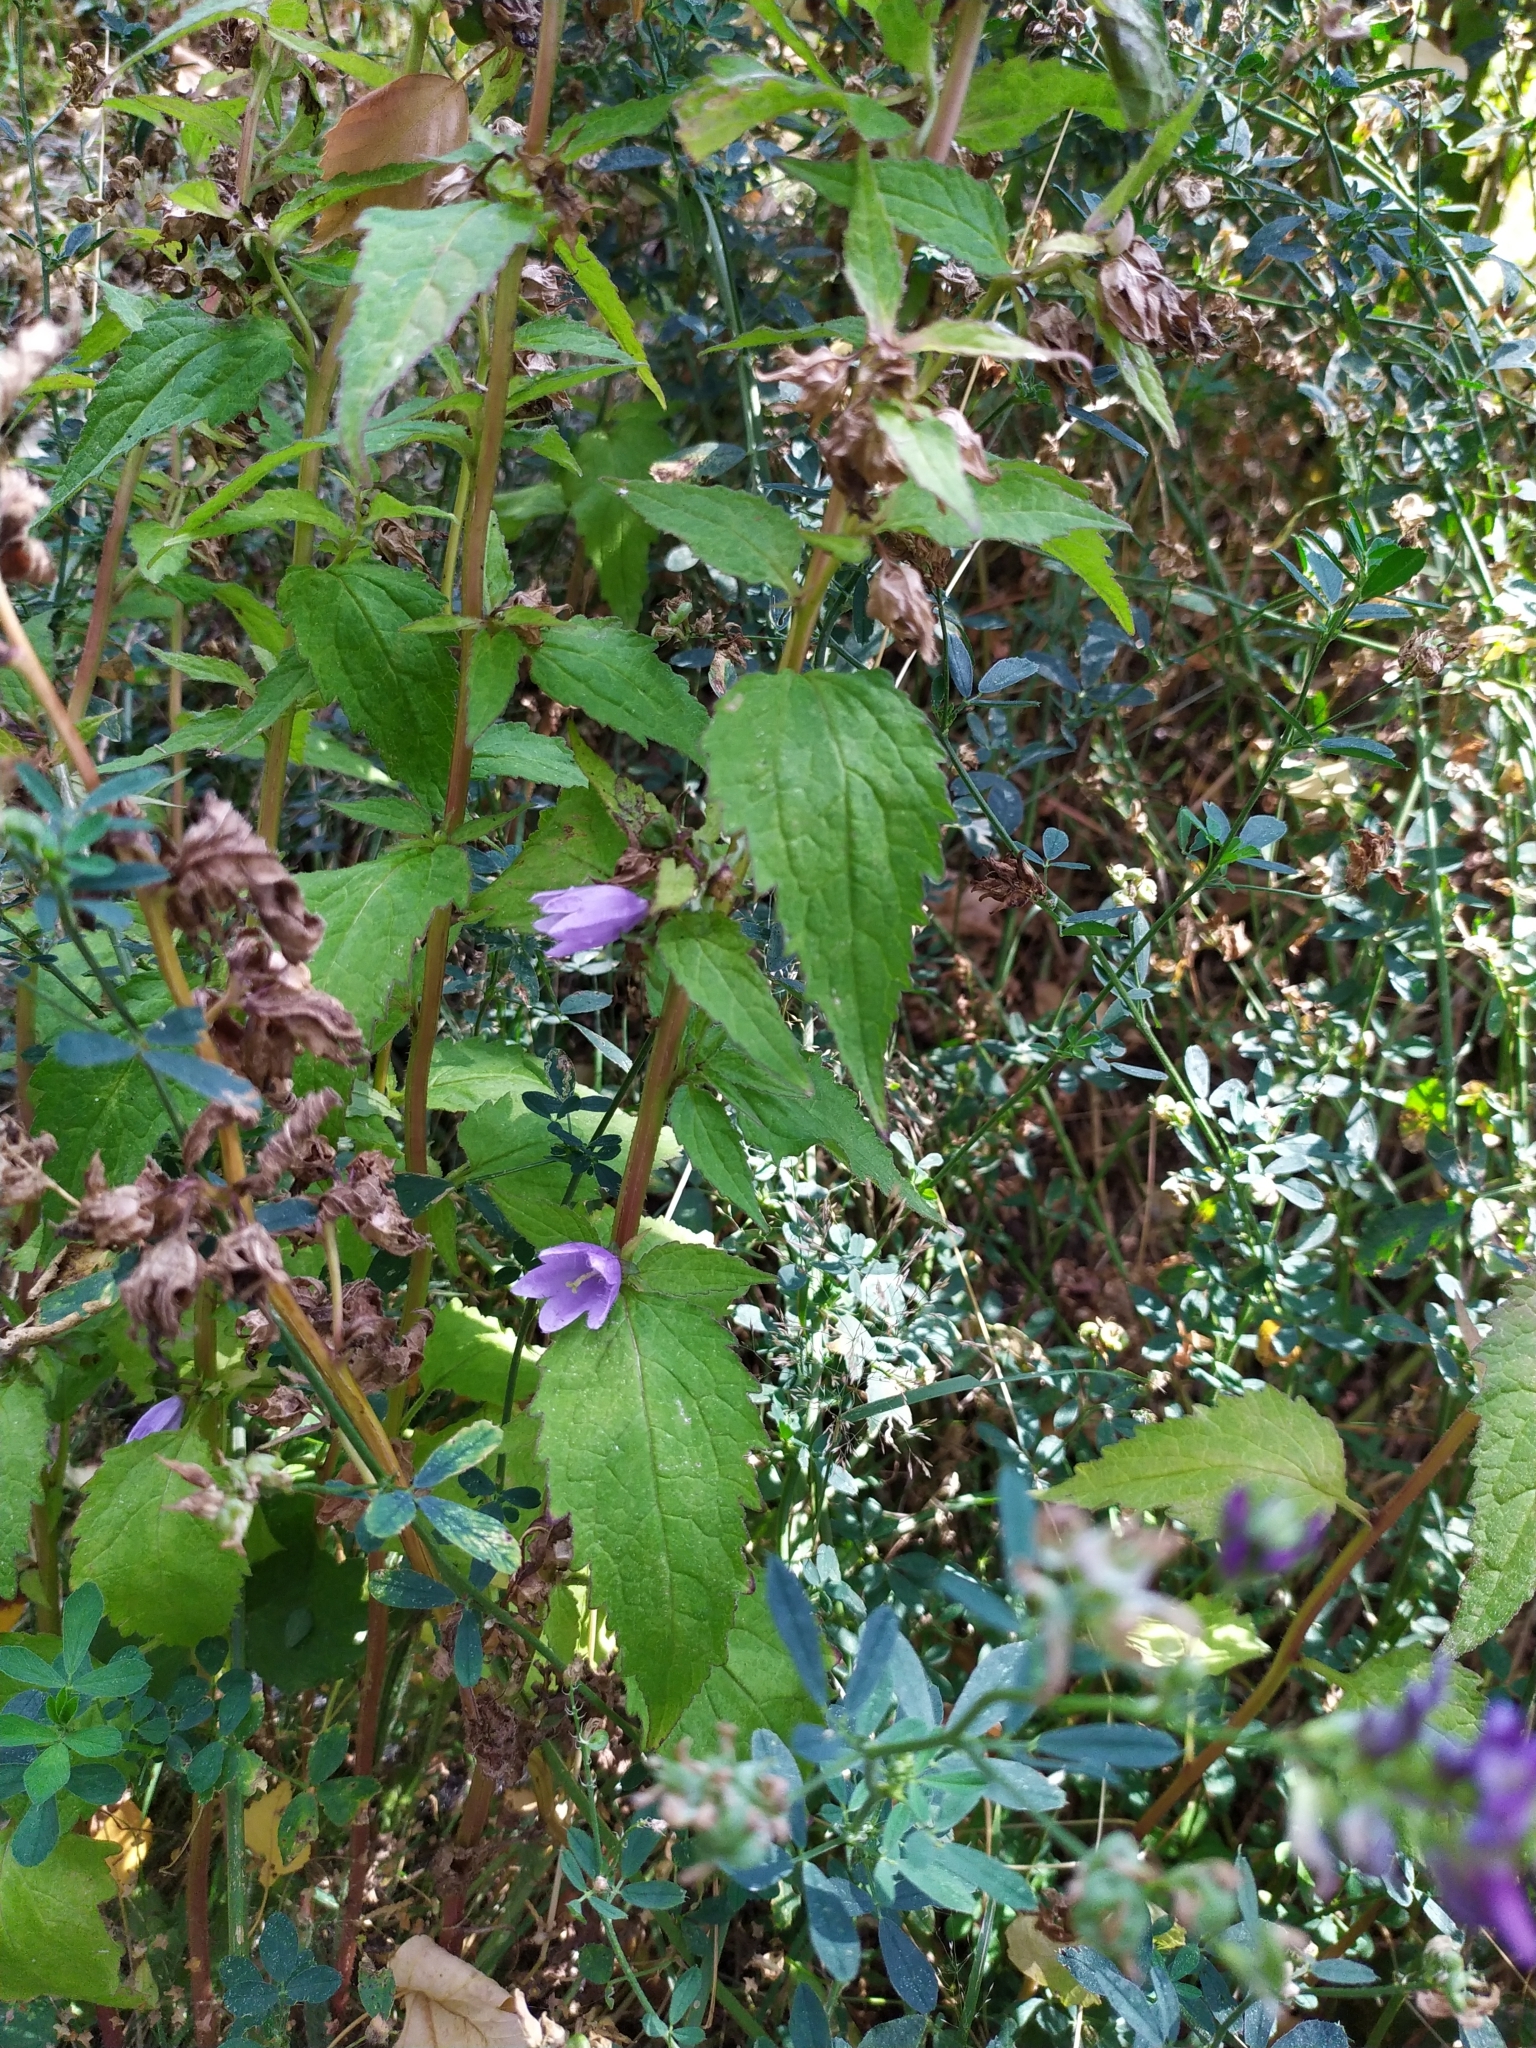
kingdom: Plantae
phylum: Tracheophyta
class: Magnoliopsida
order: Asterales
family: Campanulaceae
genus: Campanula
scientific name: Campanula trachelium
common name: Nettle-leaved bellflower
